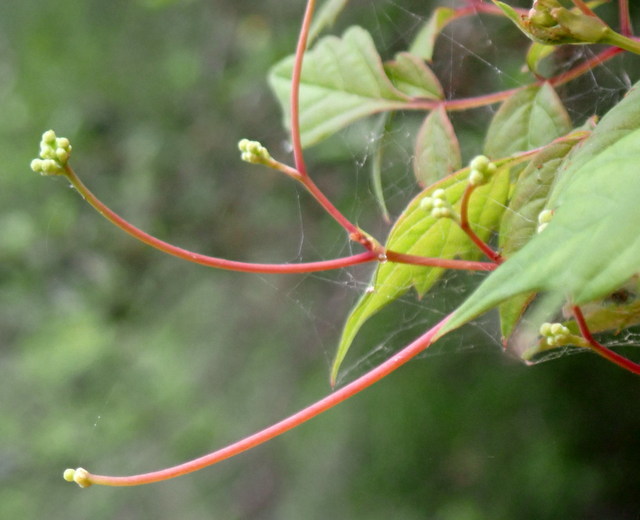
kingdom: Plantae
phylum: Tracheophyta
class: Magnoliopsida
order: Vitales
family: Vitaceae
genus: Nekemias
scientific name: Nekemias arborea
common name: Peppervine
